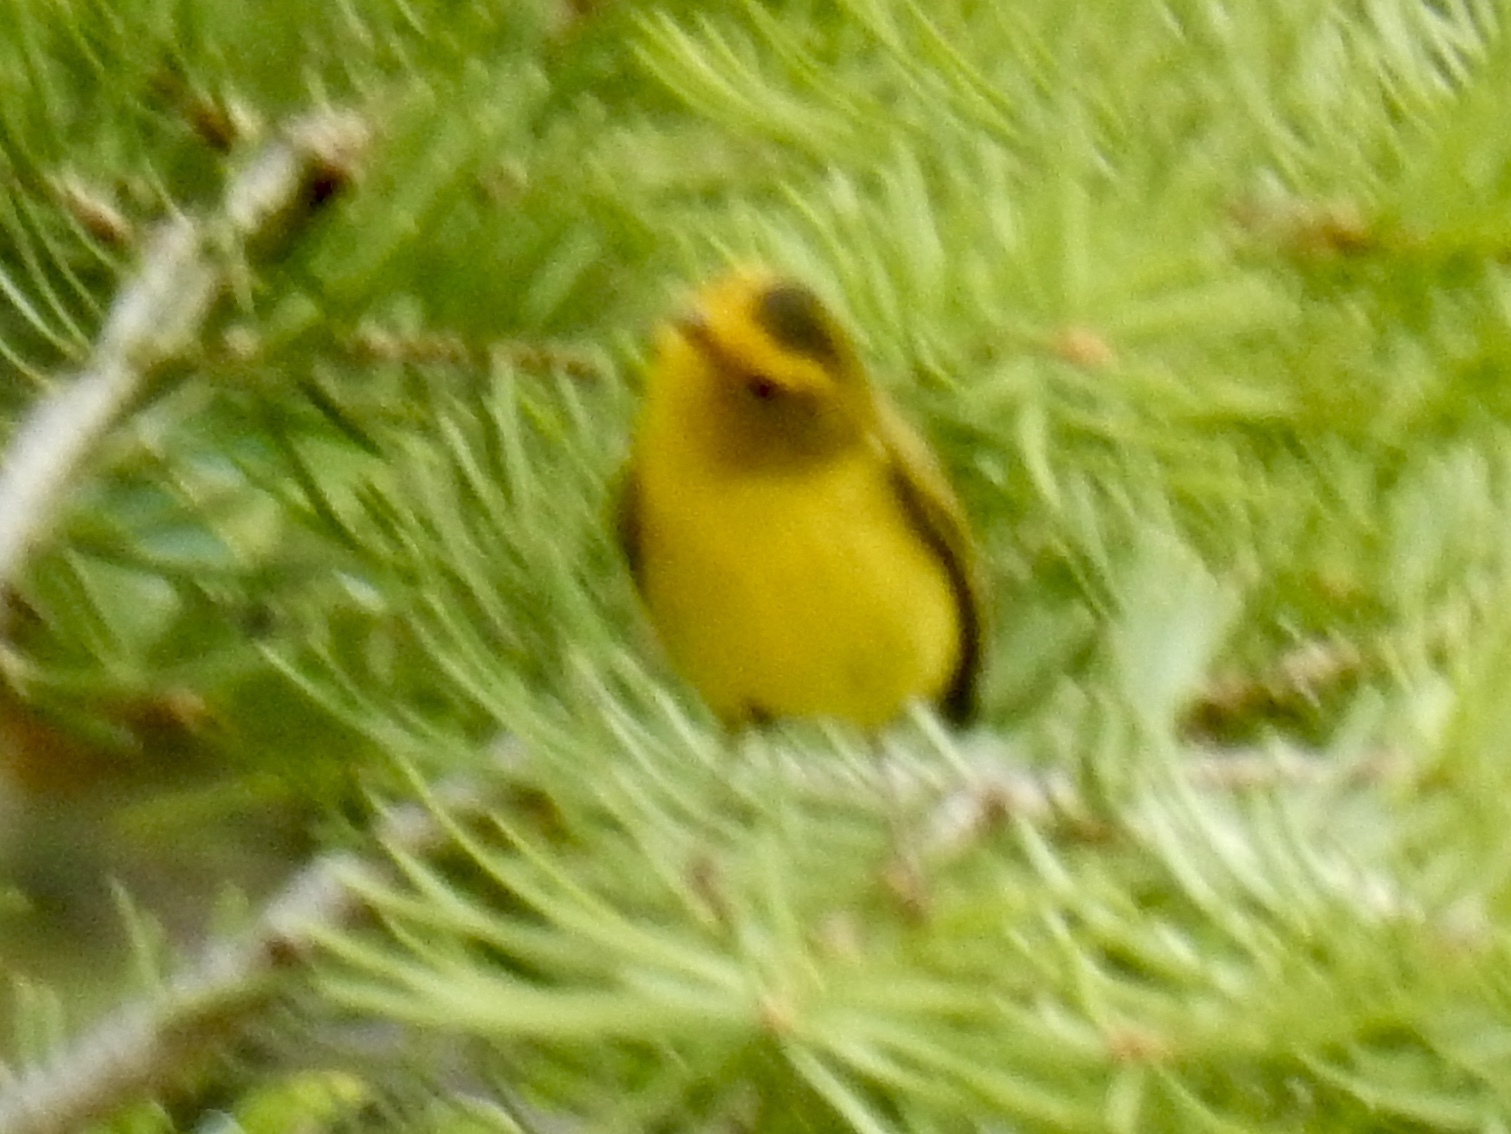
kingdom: Animalia
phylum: Chordata
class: Aves
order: Passeriformes
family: Parulidae
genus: Cardellina
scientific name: Cardellina pusilla
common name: Wilson's warbler
